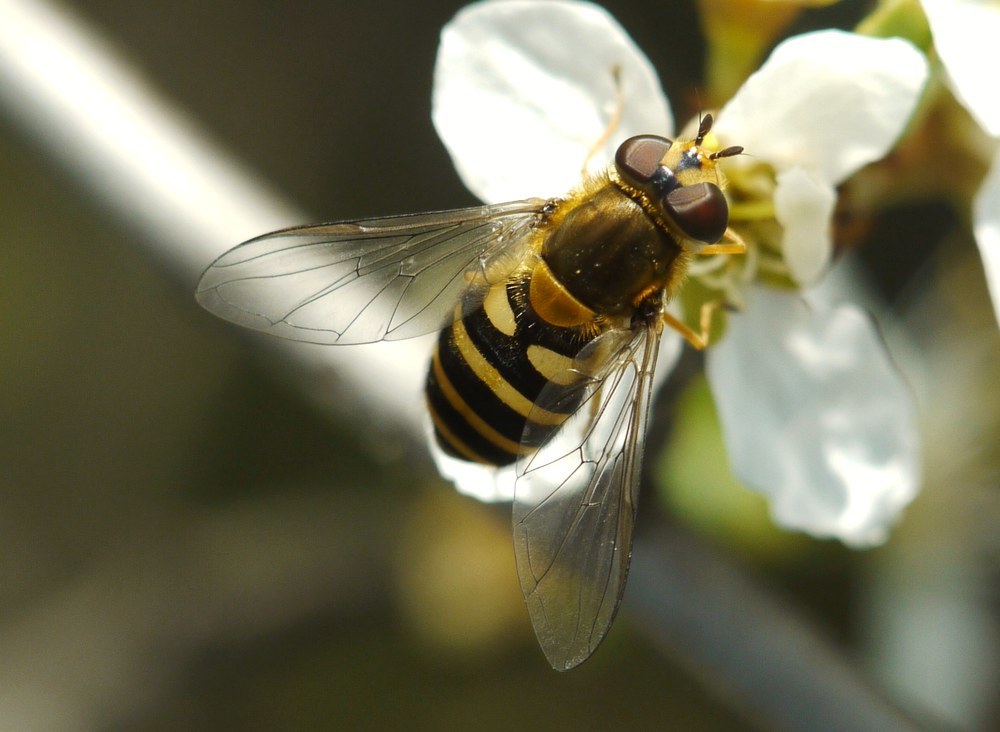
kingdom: Animalia
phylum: Arthropoda
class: Insecta
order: Diptera
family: Syrphidae
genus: Syrphus
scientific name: Syrphus
